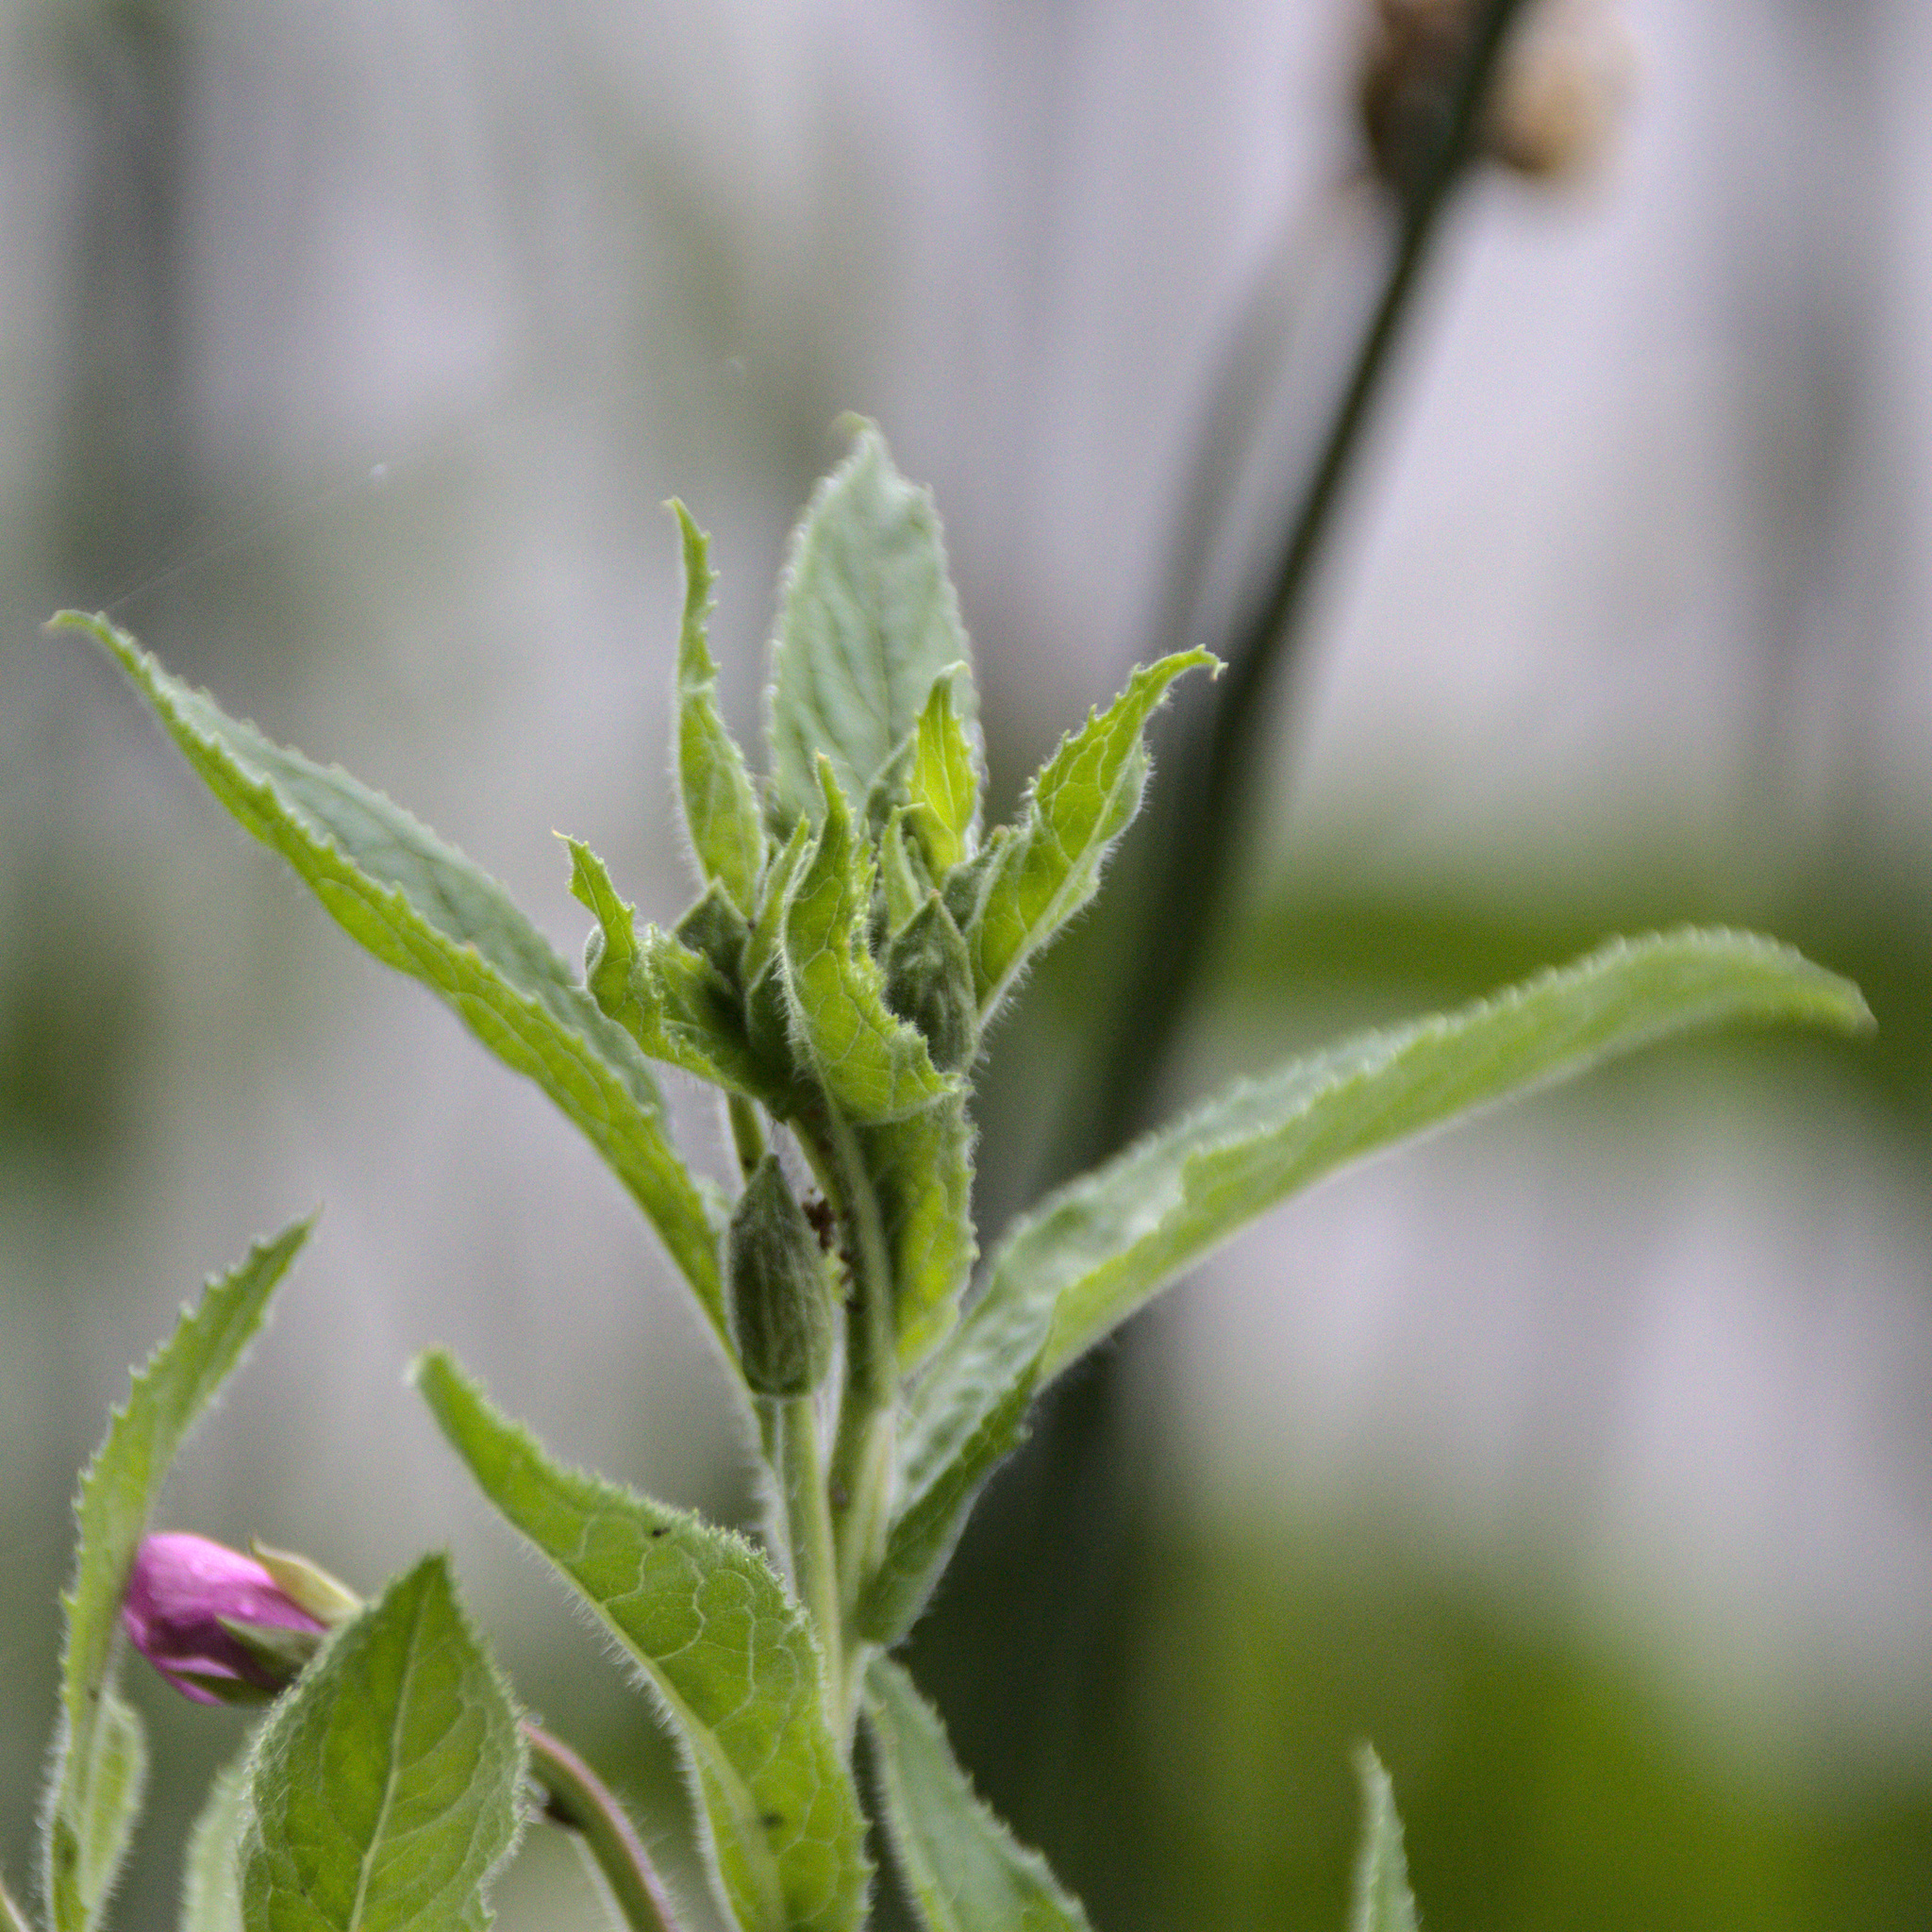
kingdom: Plantae
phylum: Tracheophyta
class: Magnoliopsida
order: Myrtales
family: Onagraceae
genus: Epilobium
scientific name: Epilobium hirsutum
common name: Great willowherb
